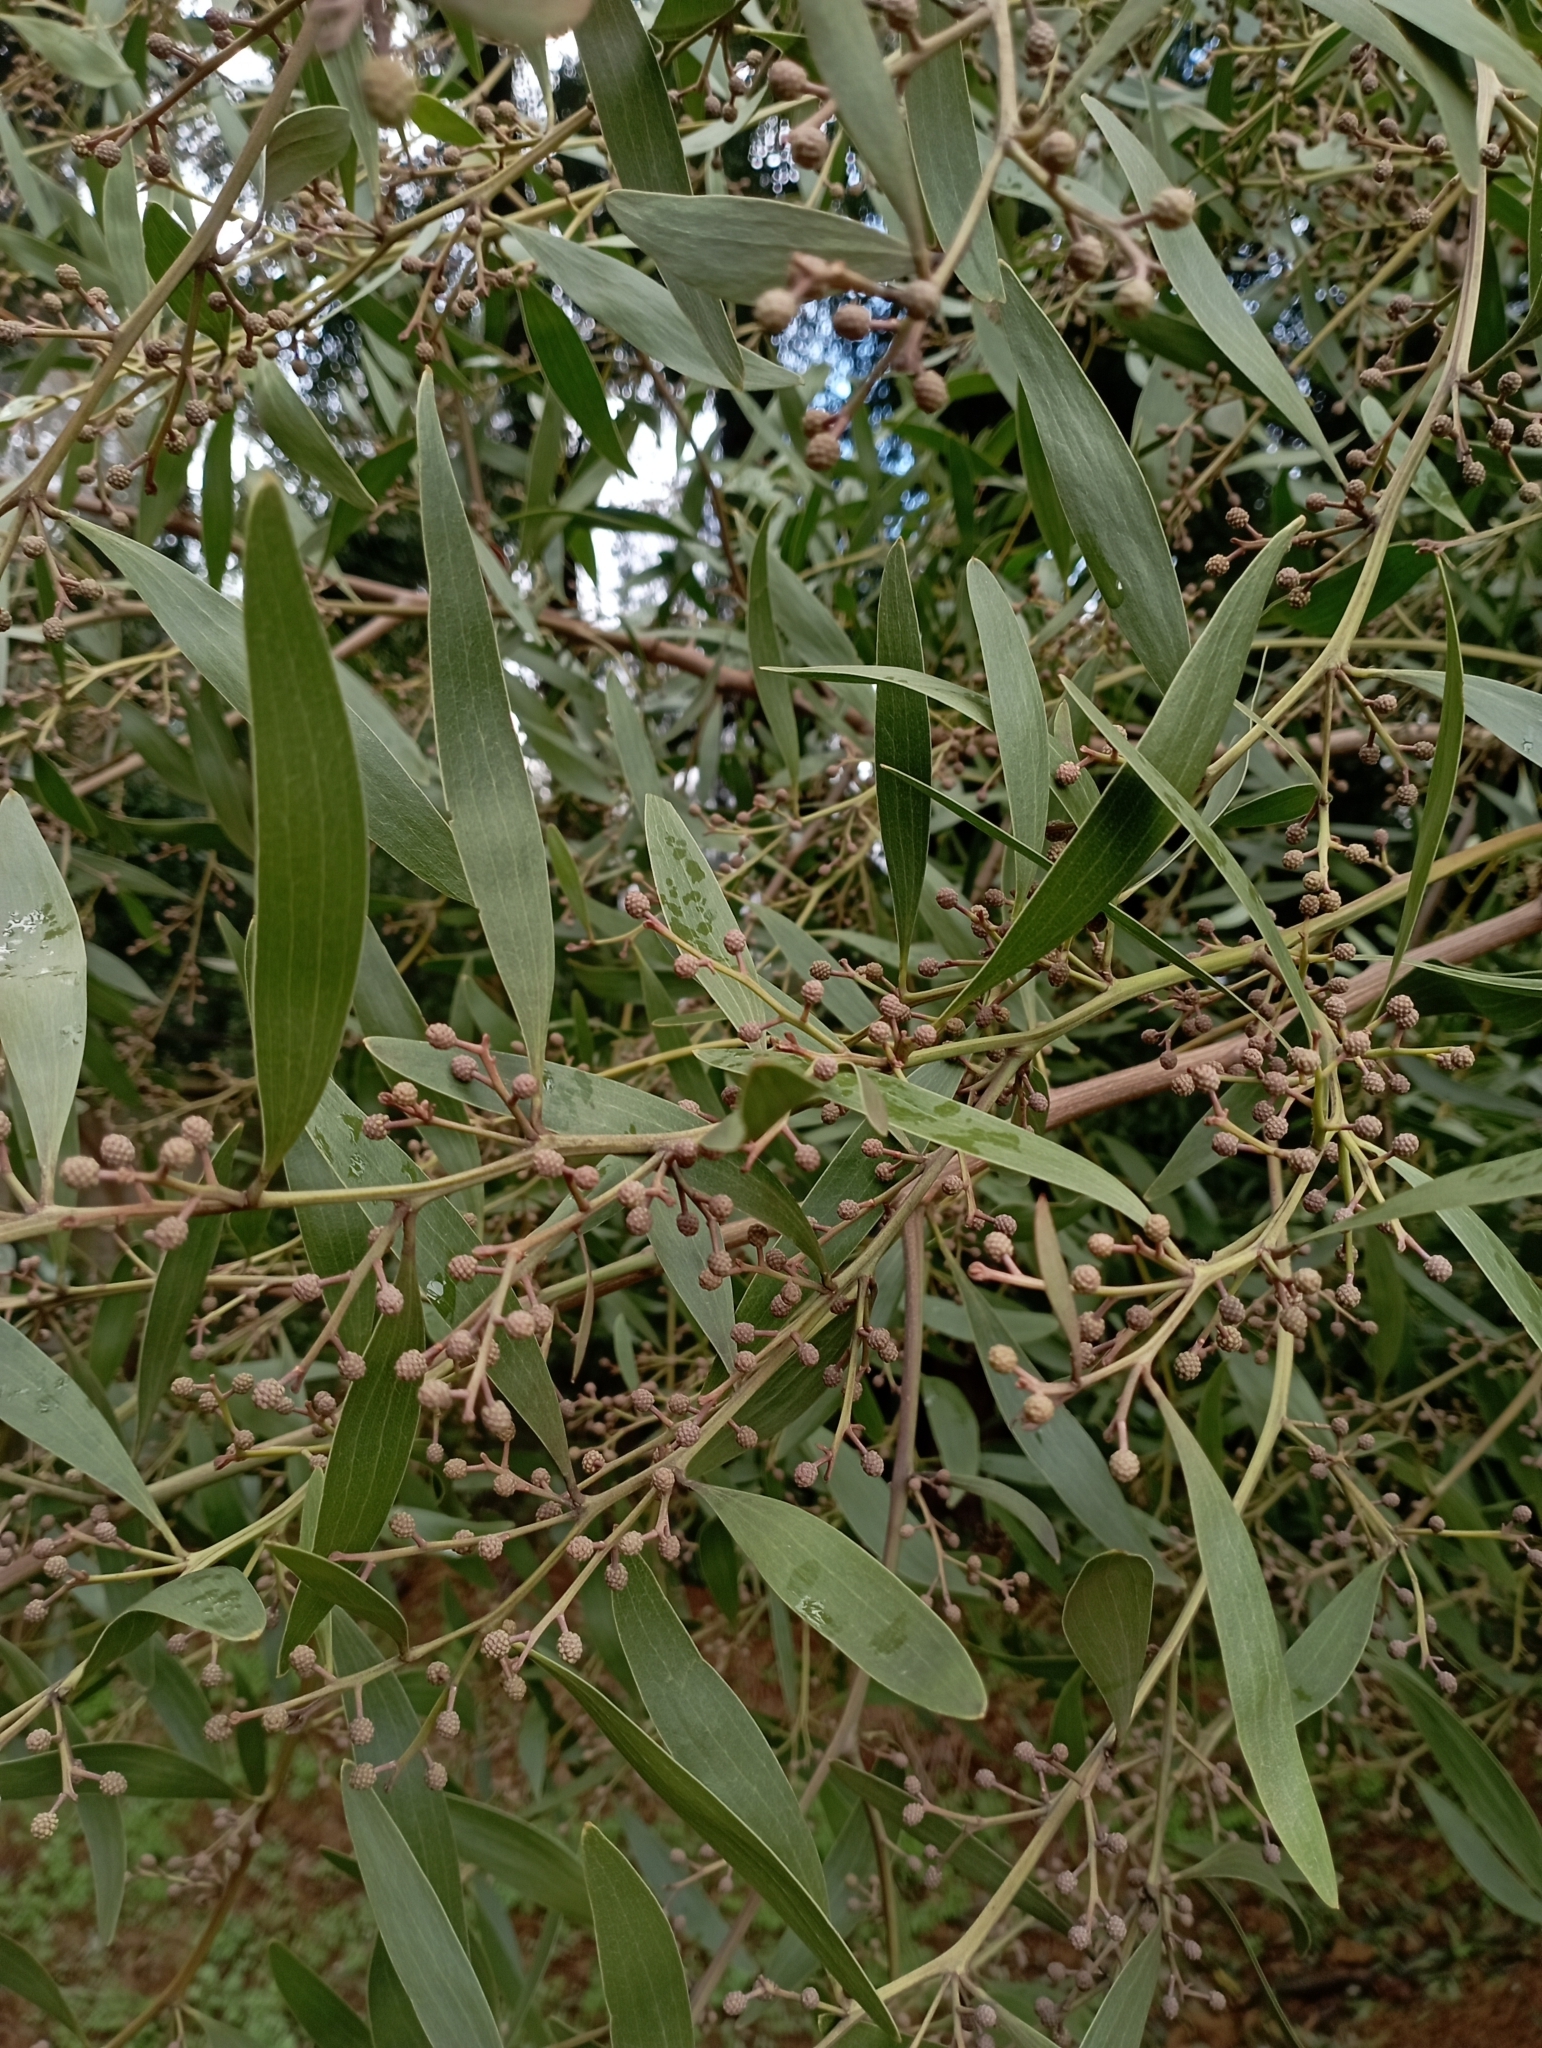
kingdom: Plantae
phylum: Tracheophyta
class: Magnoliopsida
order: Fabales
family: Fabaceae
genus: Acacia
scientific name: Acacia melanoxylon
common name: Blackwood
